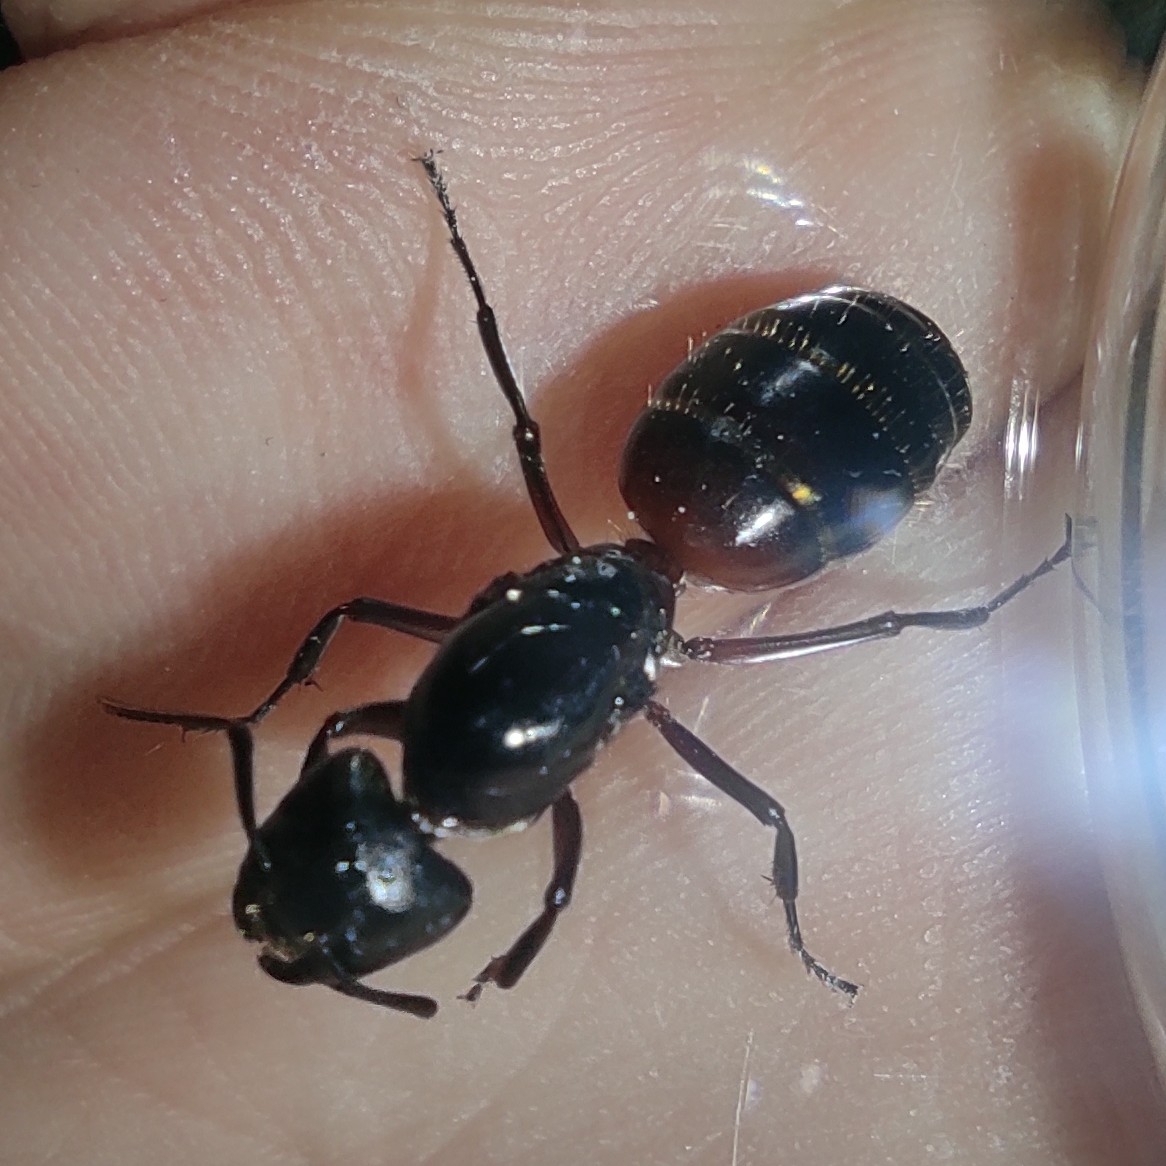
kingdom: Animalia
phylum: Arthropoda
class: Insecta
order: Hymenoptera
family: Formicidae
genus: Camponotus
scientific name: Camponotus ligniperdus
